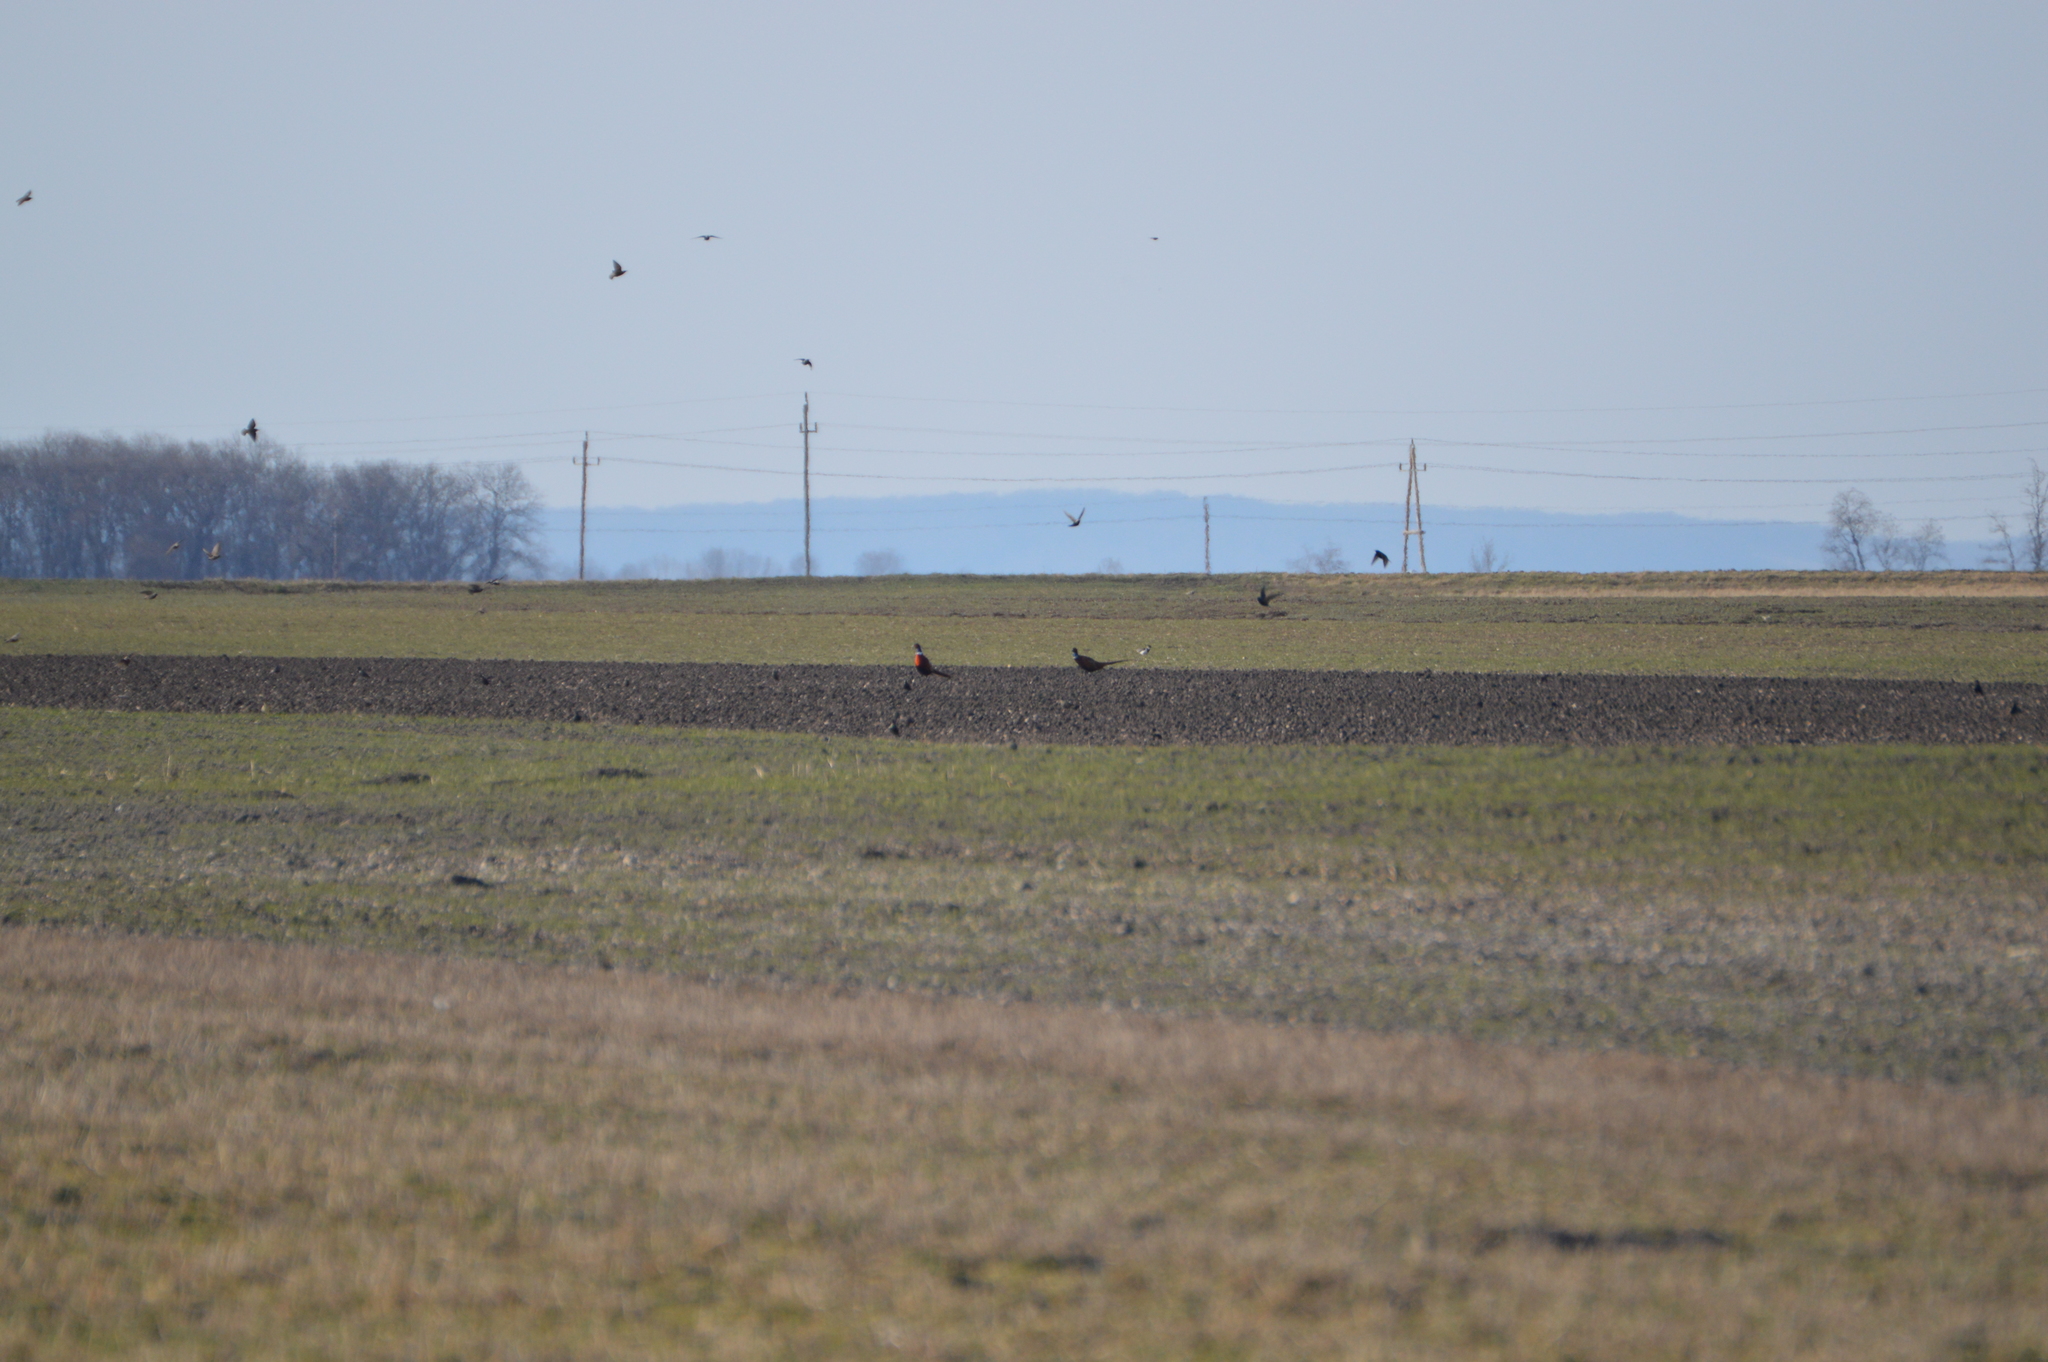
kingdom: Animalia
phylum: Chordata
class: Aves
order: Galliformes
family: Phasianidae
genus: Phasianus
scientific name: Phasianus colchicus
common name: Common pheasant
